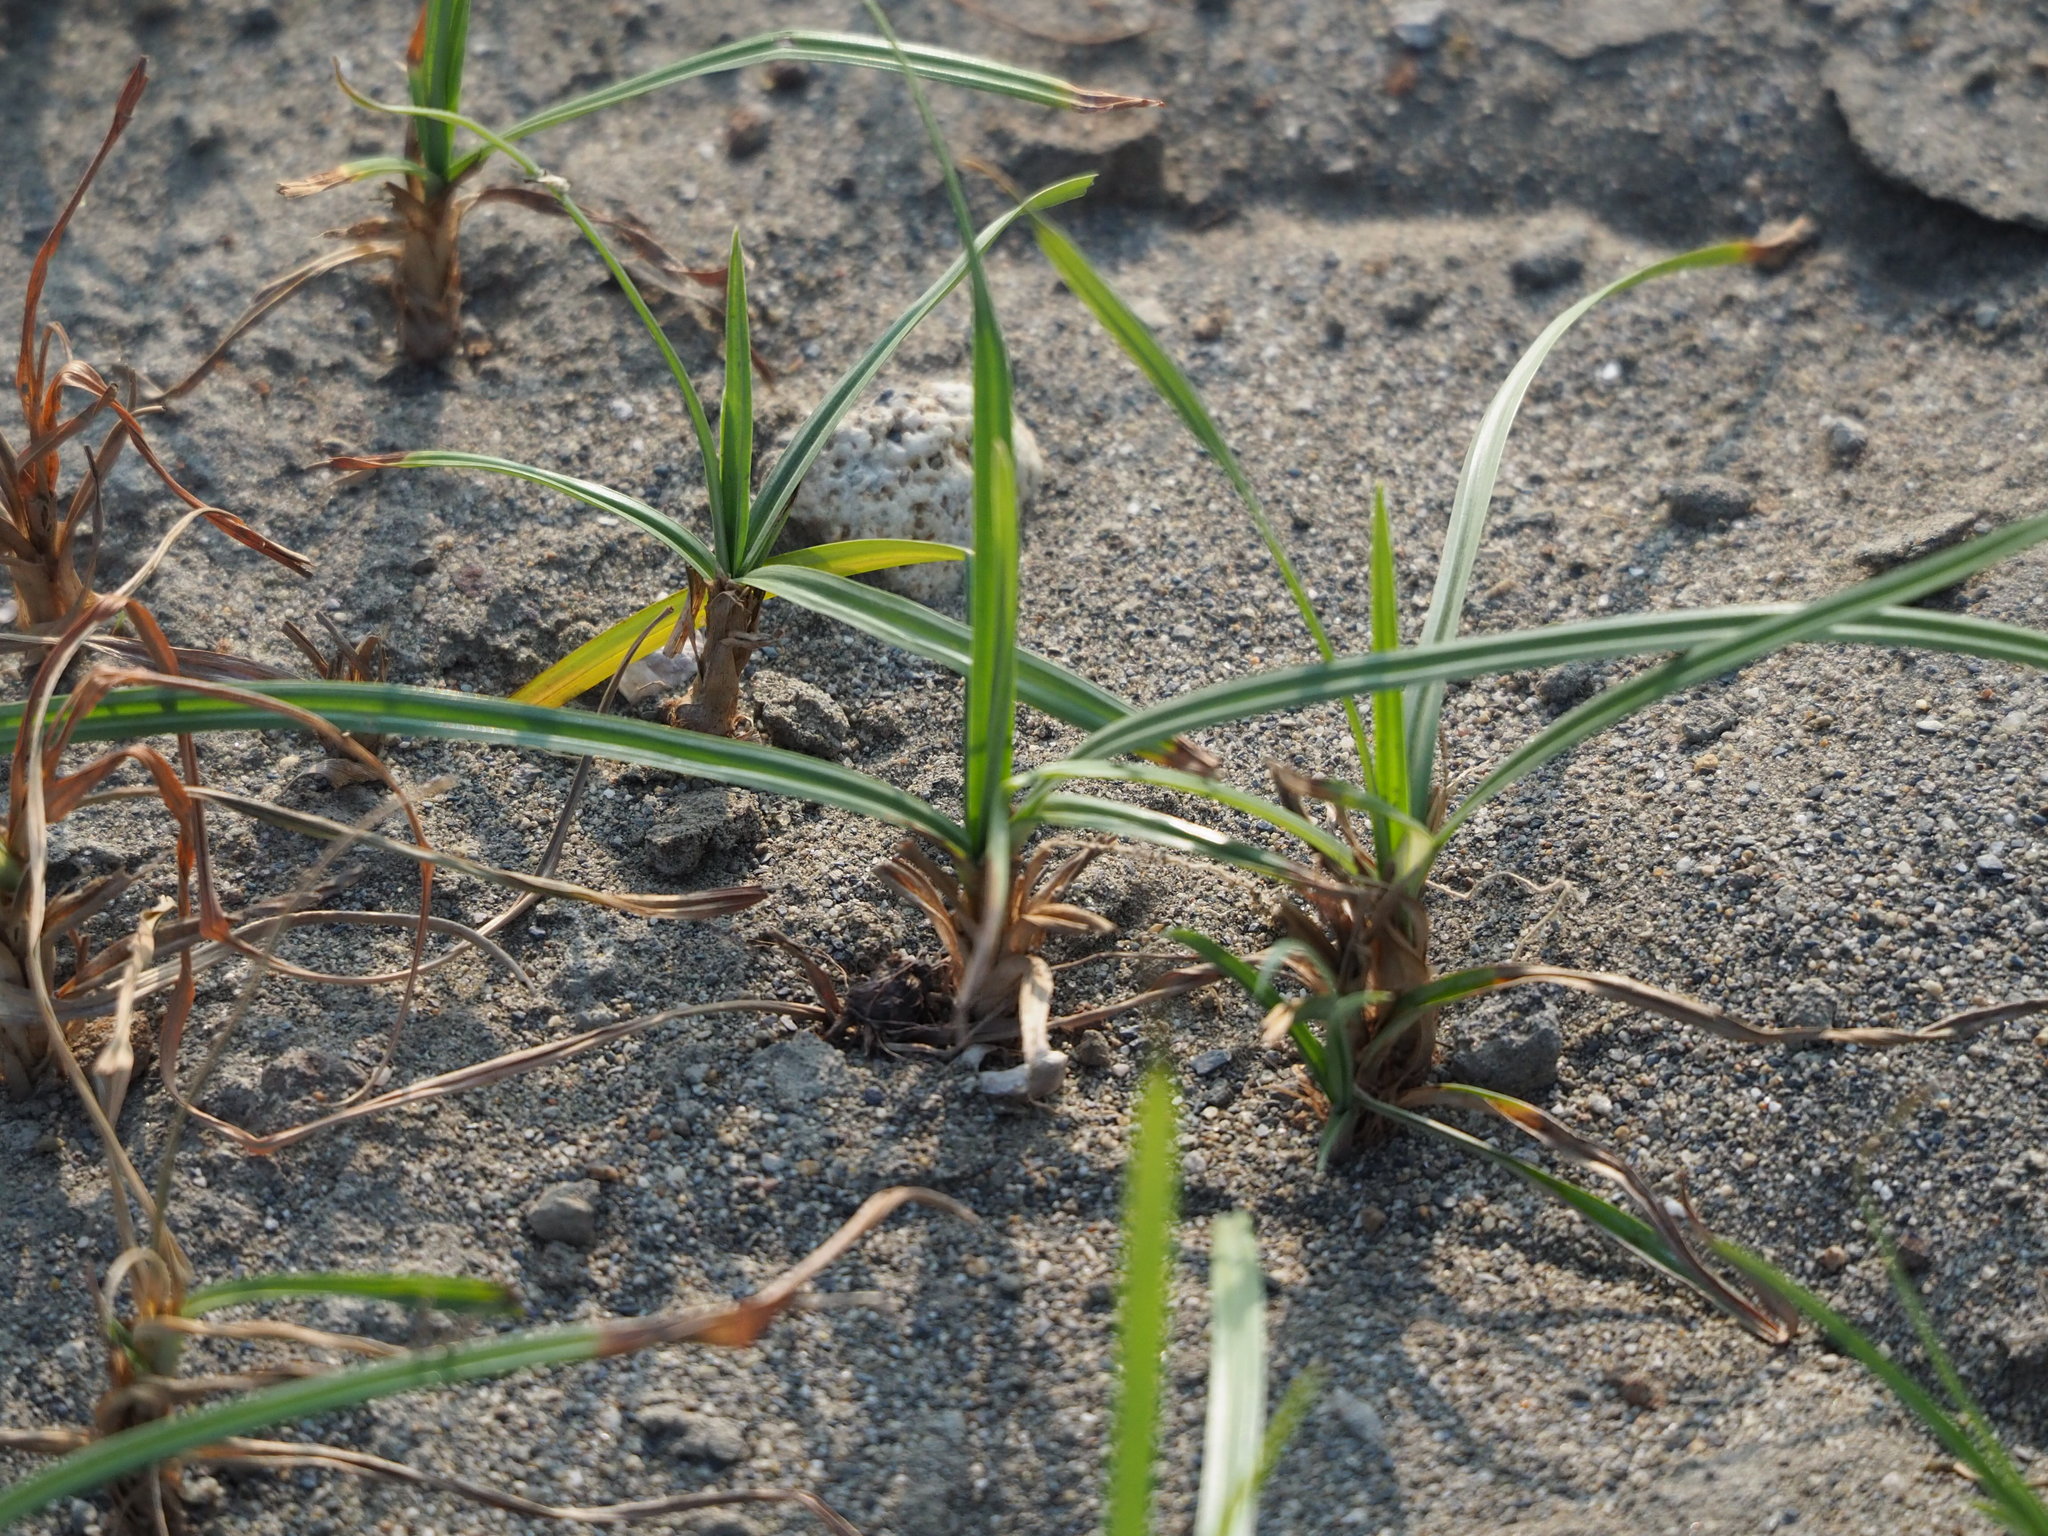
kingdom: Plantae
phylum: Tracheophyta
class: Liliopsida
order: Poales
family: Cyperaceae
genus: Cyperus
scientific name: Cyperus rotundus
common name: Nutgrass
